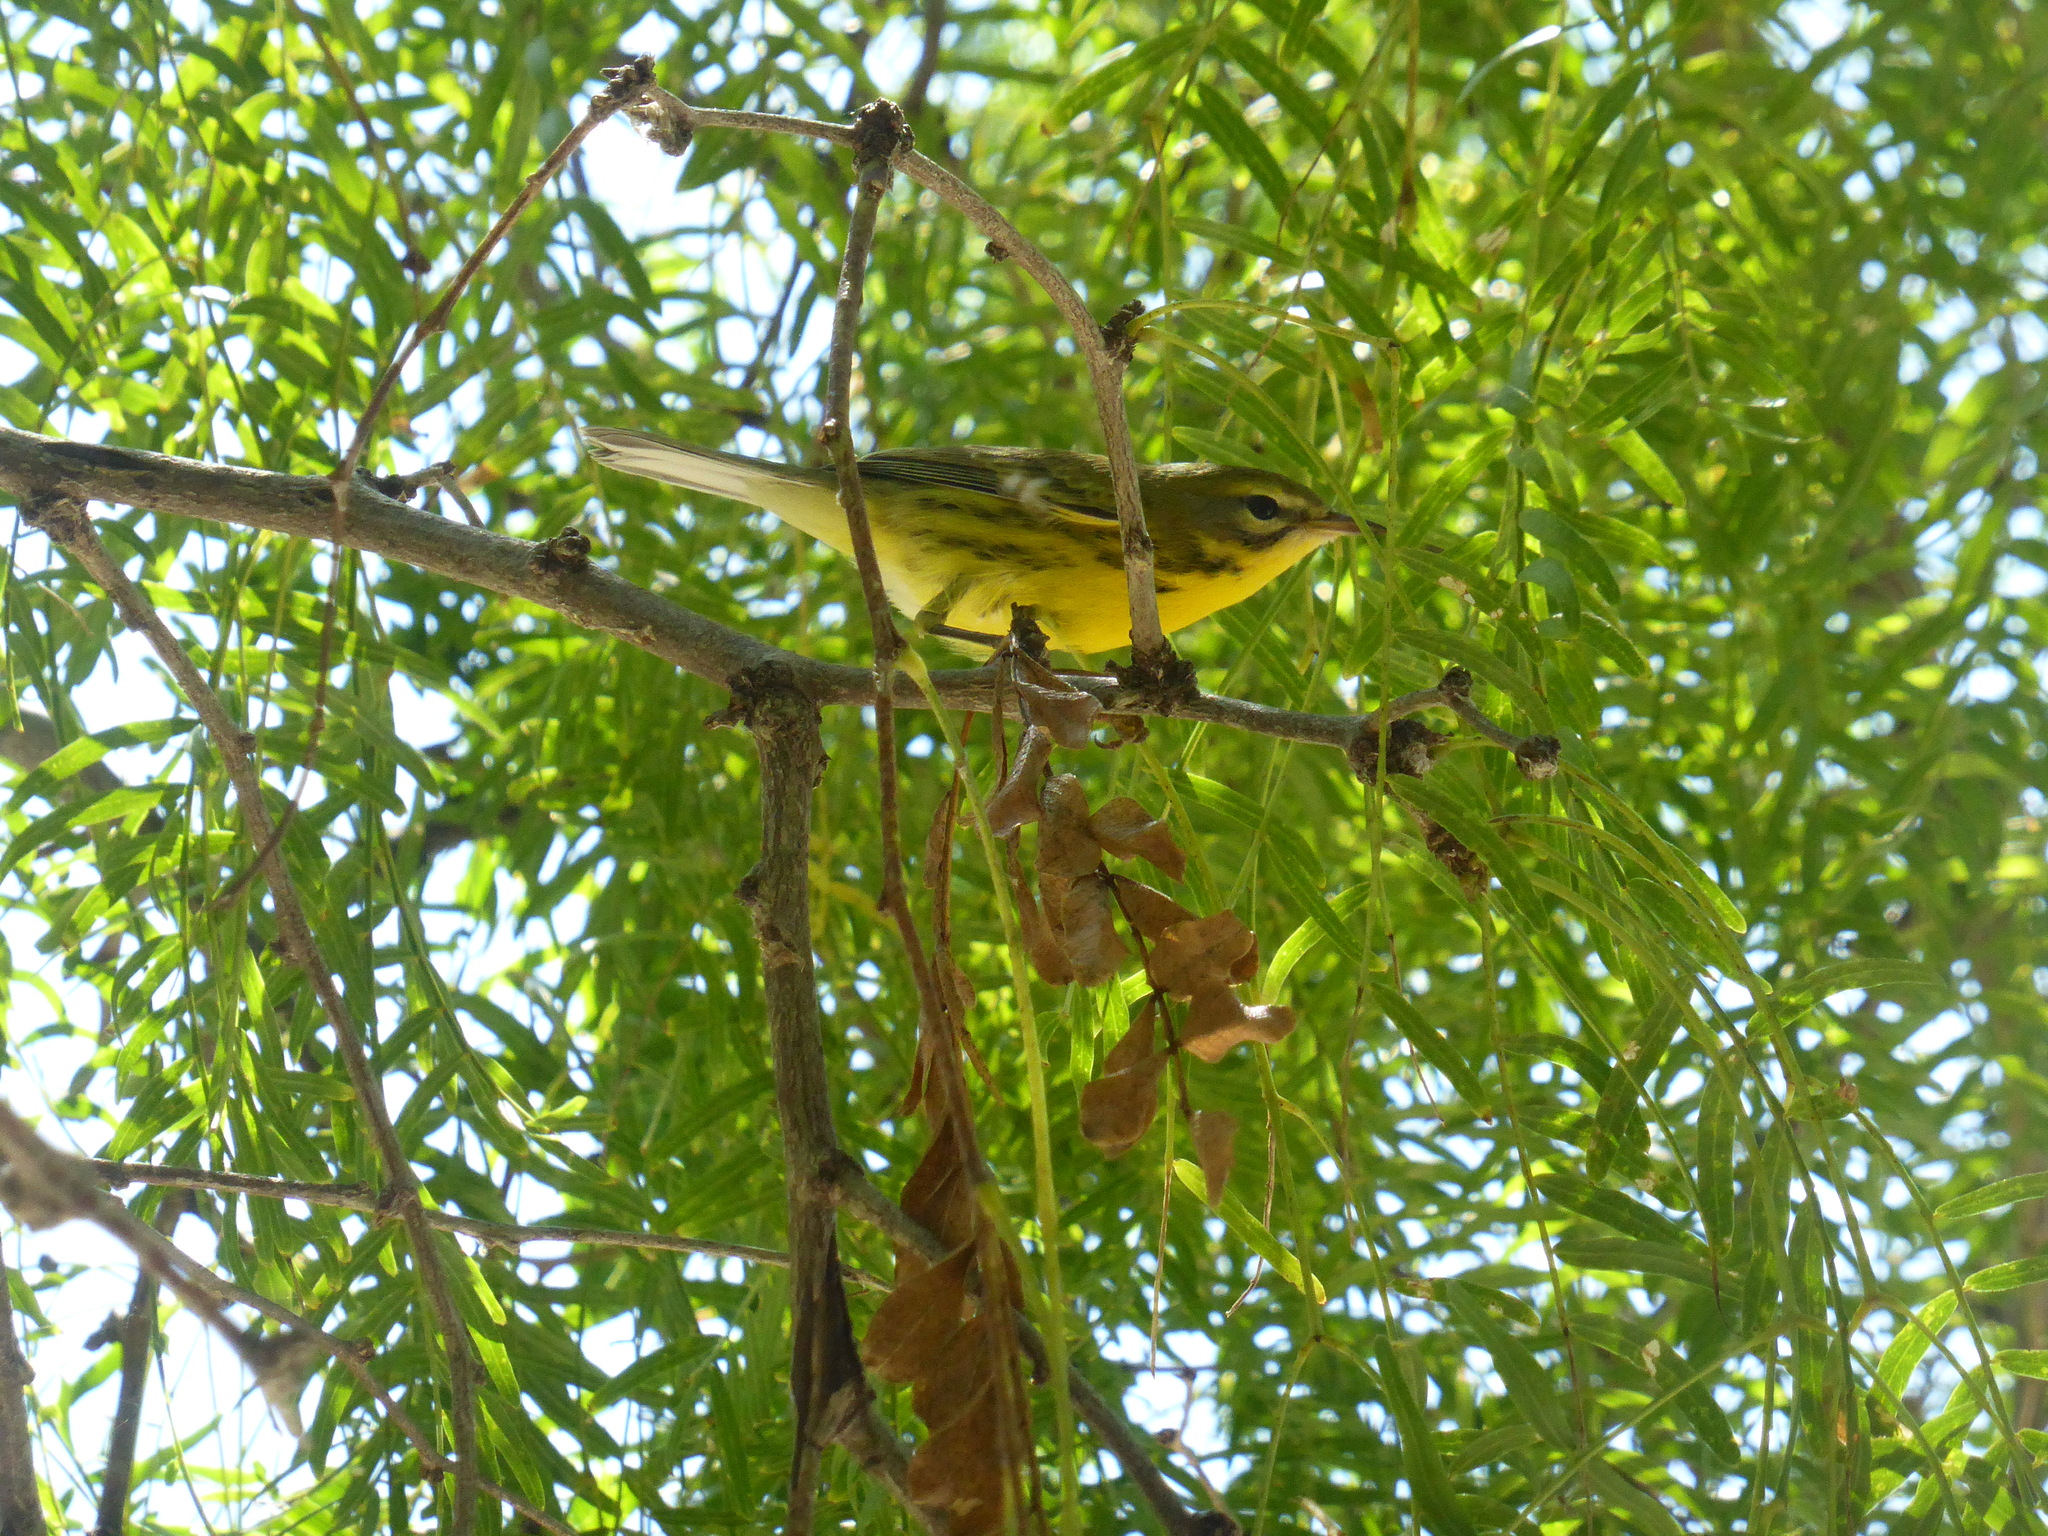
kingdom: Animalia
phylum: Chordata
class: Aves
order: Passeriformes
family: Parulidae
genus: Setophaga
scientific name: Setophaga discolor
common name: Prairie warbler
